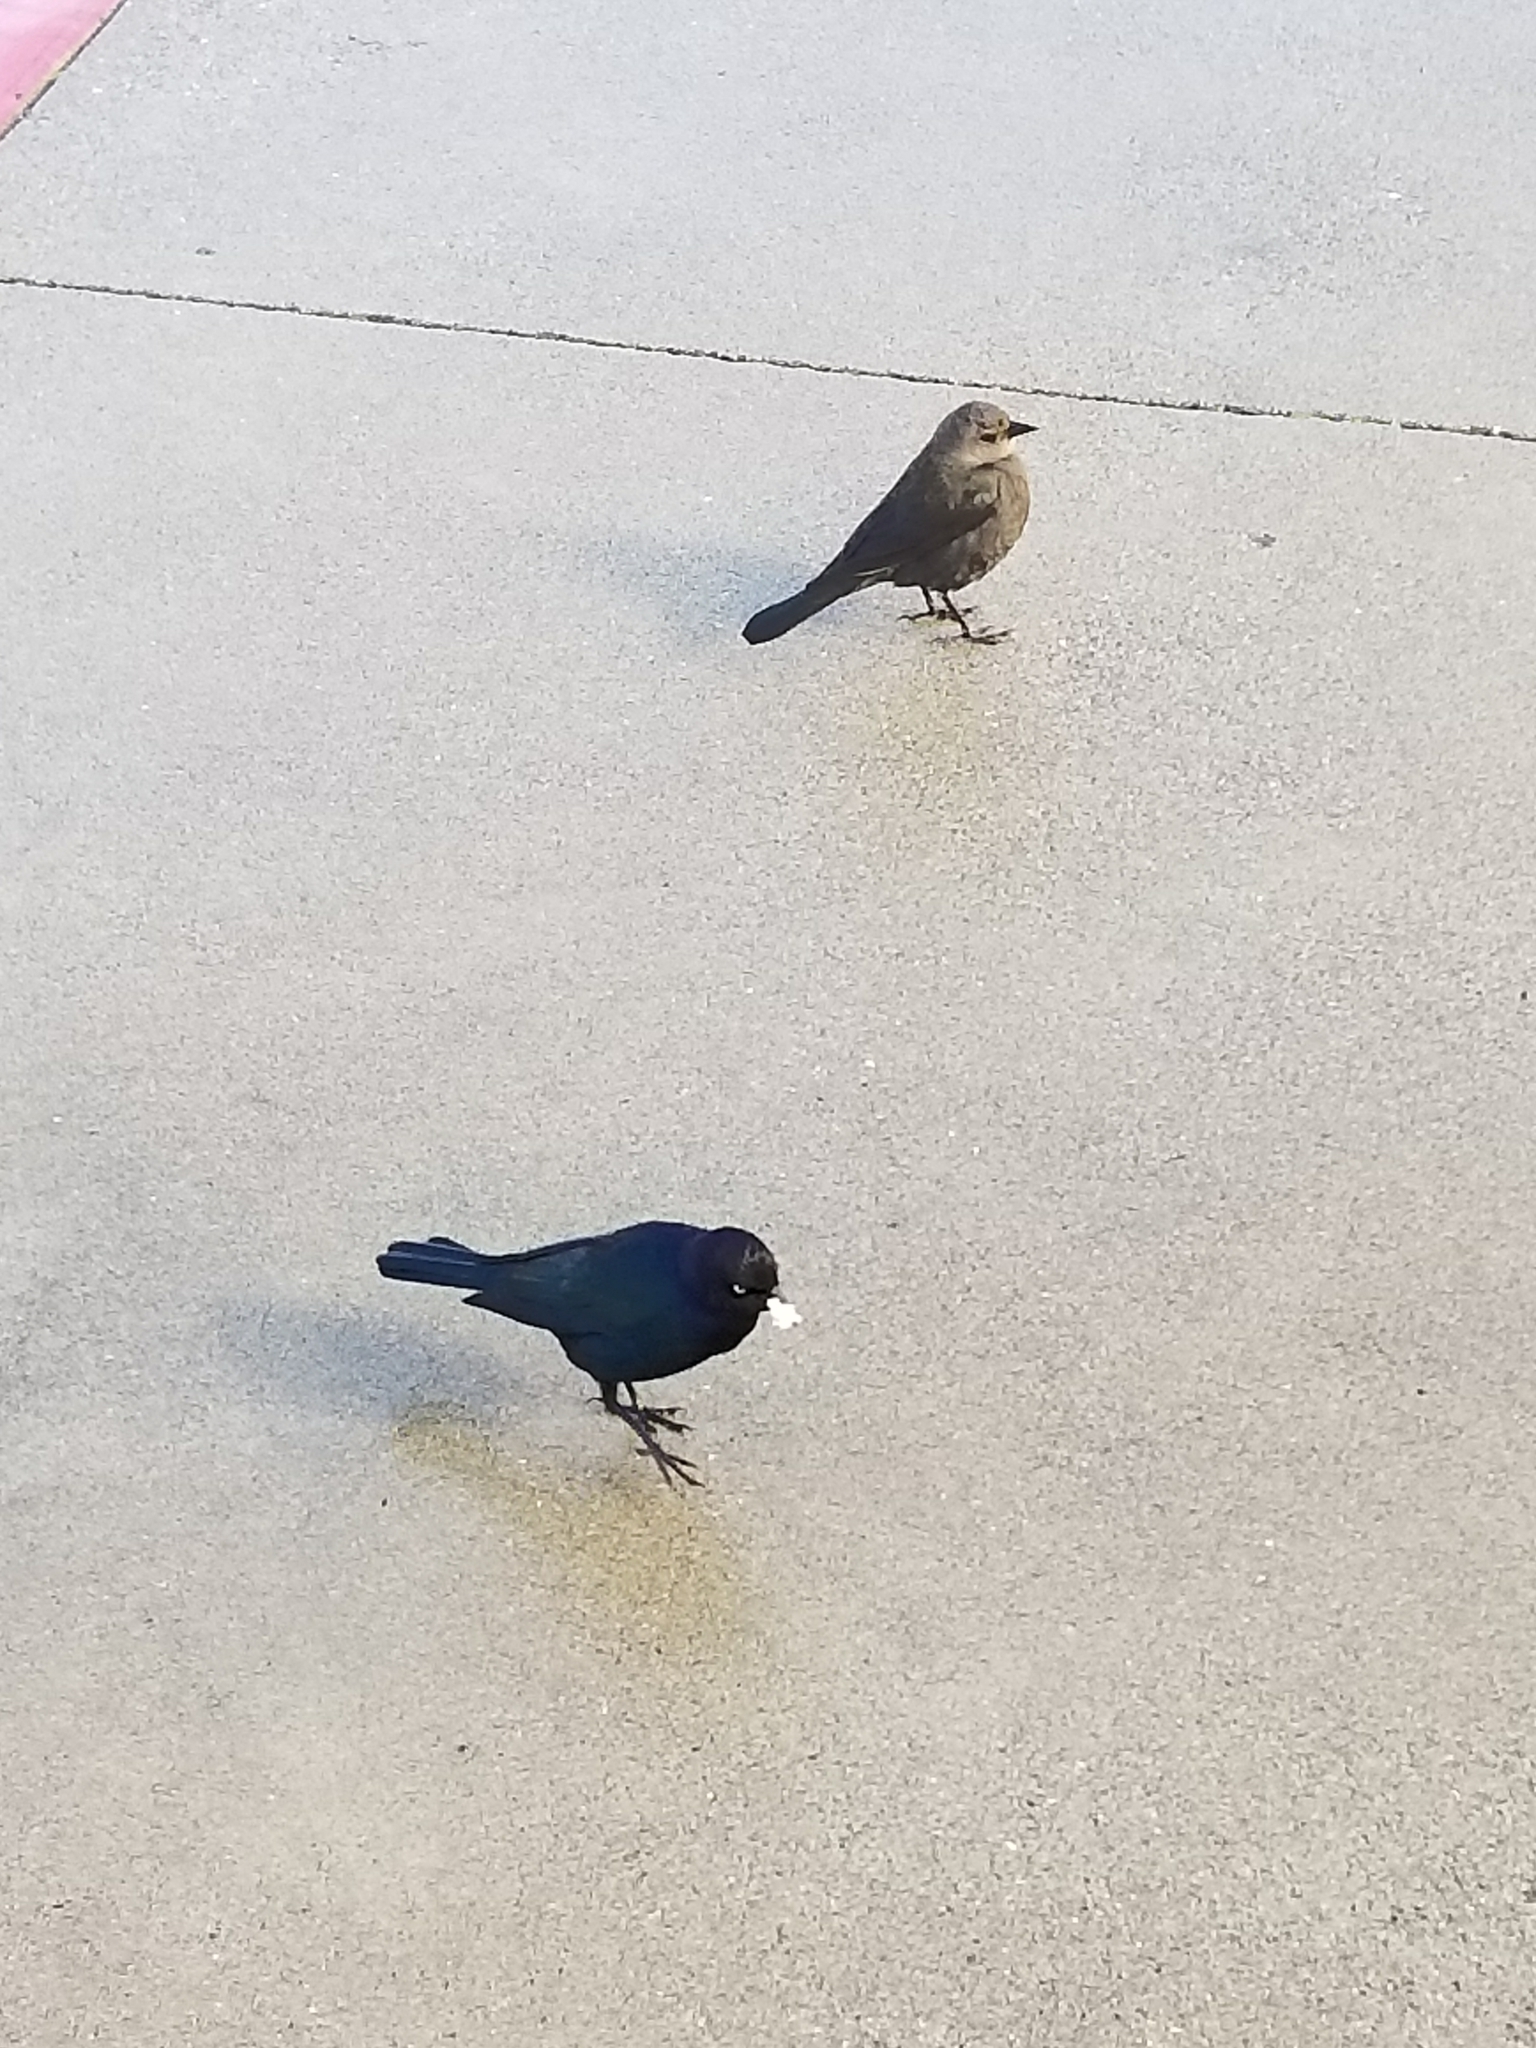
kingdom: Animalia
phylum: Chordata
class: Aves
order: Passeriformes
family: Icteridae
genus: Euphagus
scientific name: Euphagus cyanocephalus
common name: Brewer's blackbird
